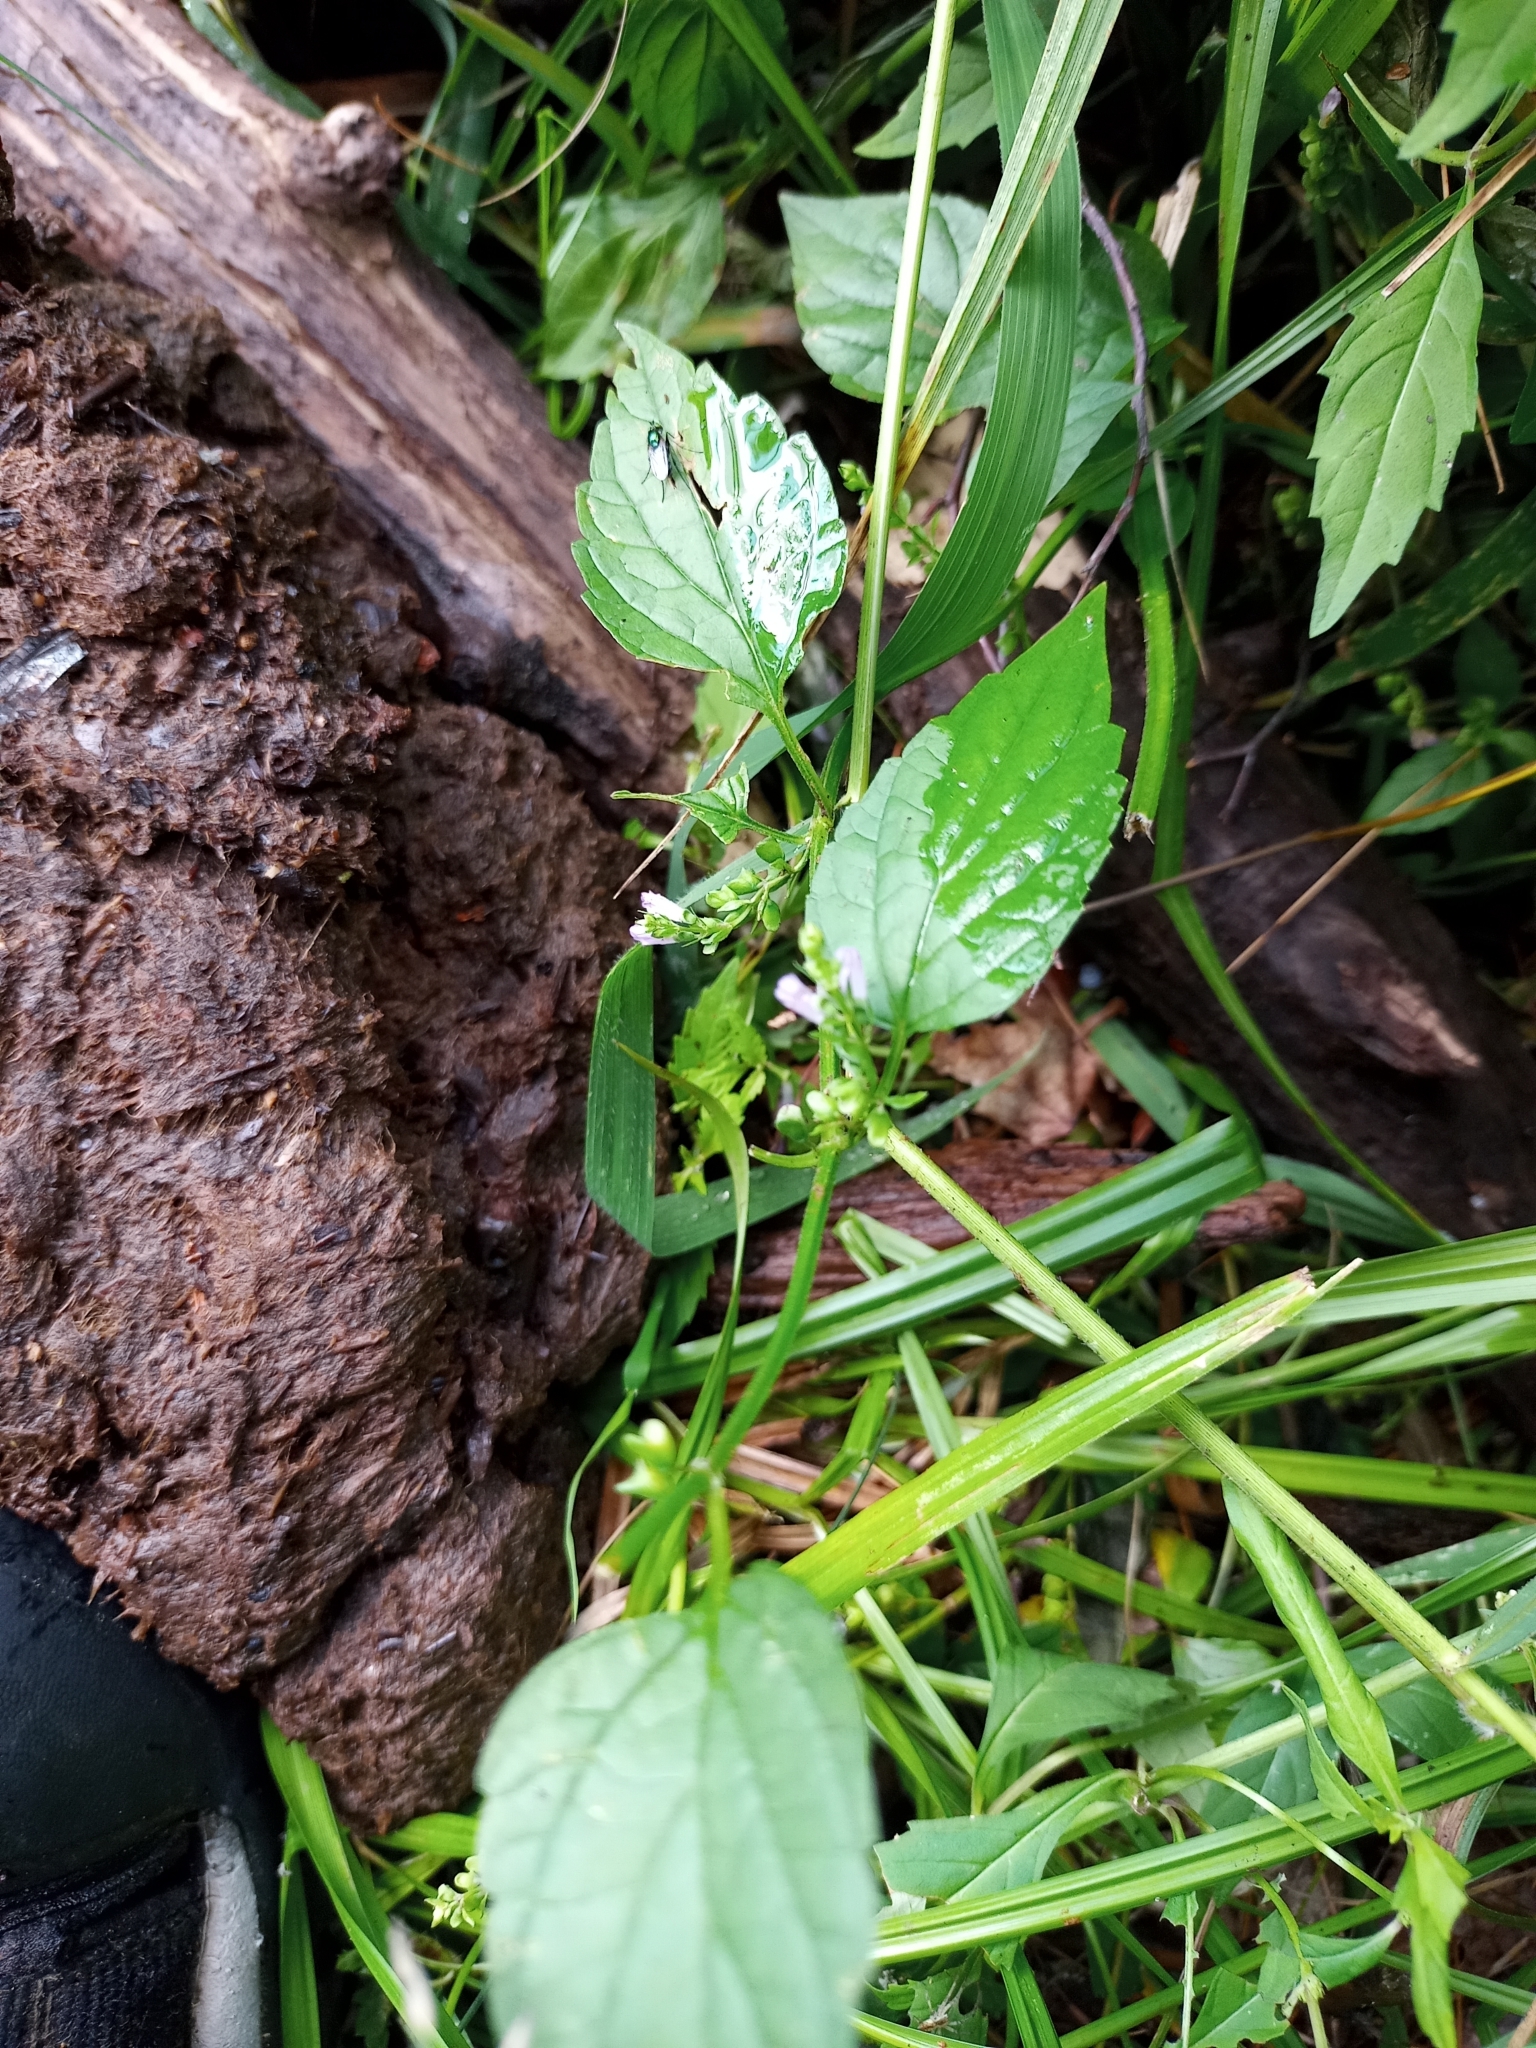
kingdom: Plantae
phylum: Tracheophyta
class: Magnoliopsida
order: Lamiales
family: Lamiaceae
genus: Scutellaria
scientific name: Scutellaria lateriflora
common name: Blue skullcap
